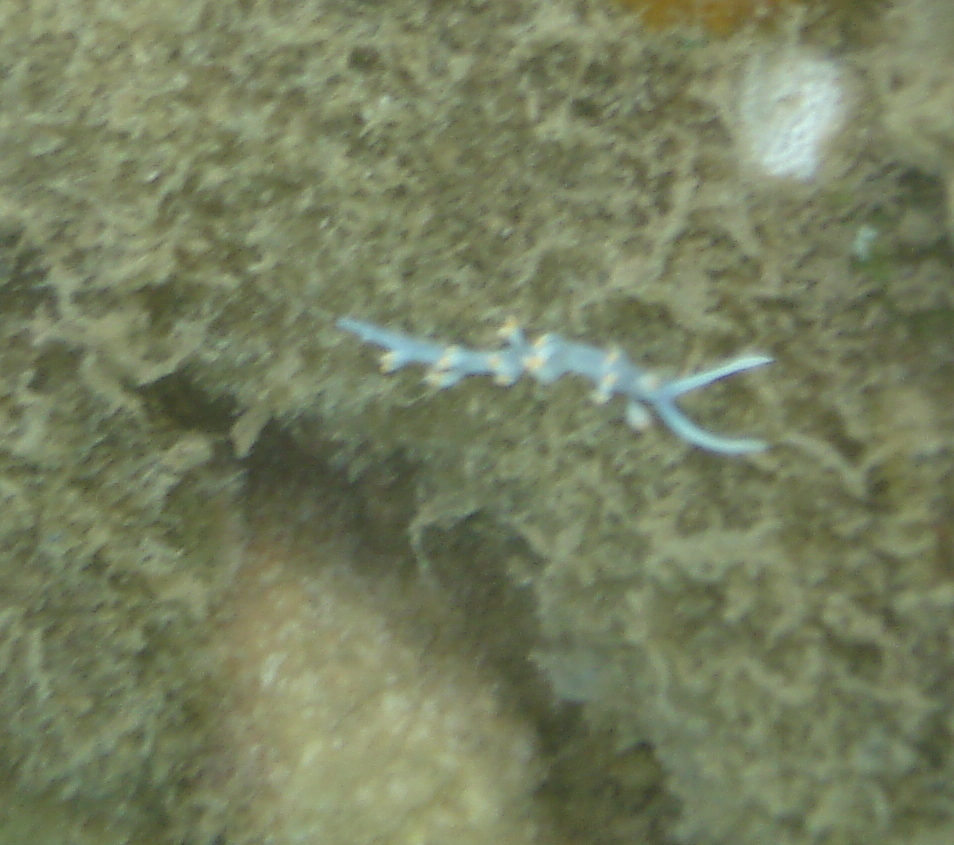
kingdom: Animalia
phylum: Mollusca
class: Gastropoda
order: Nudibranchia
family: Samlidae
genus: Samla
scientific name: Samla bicolor
